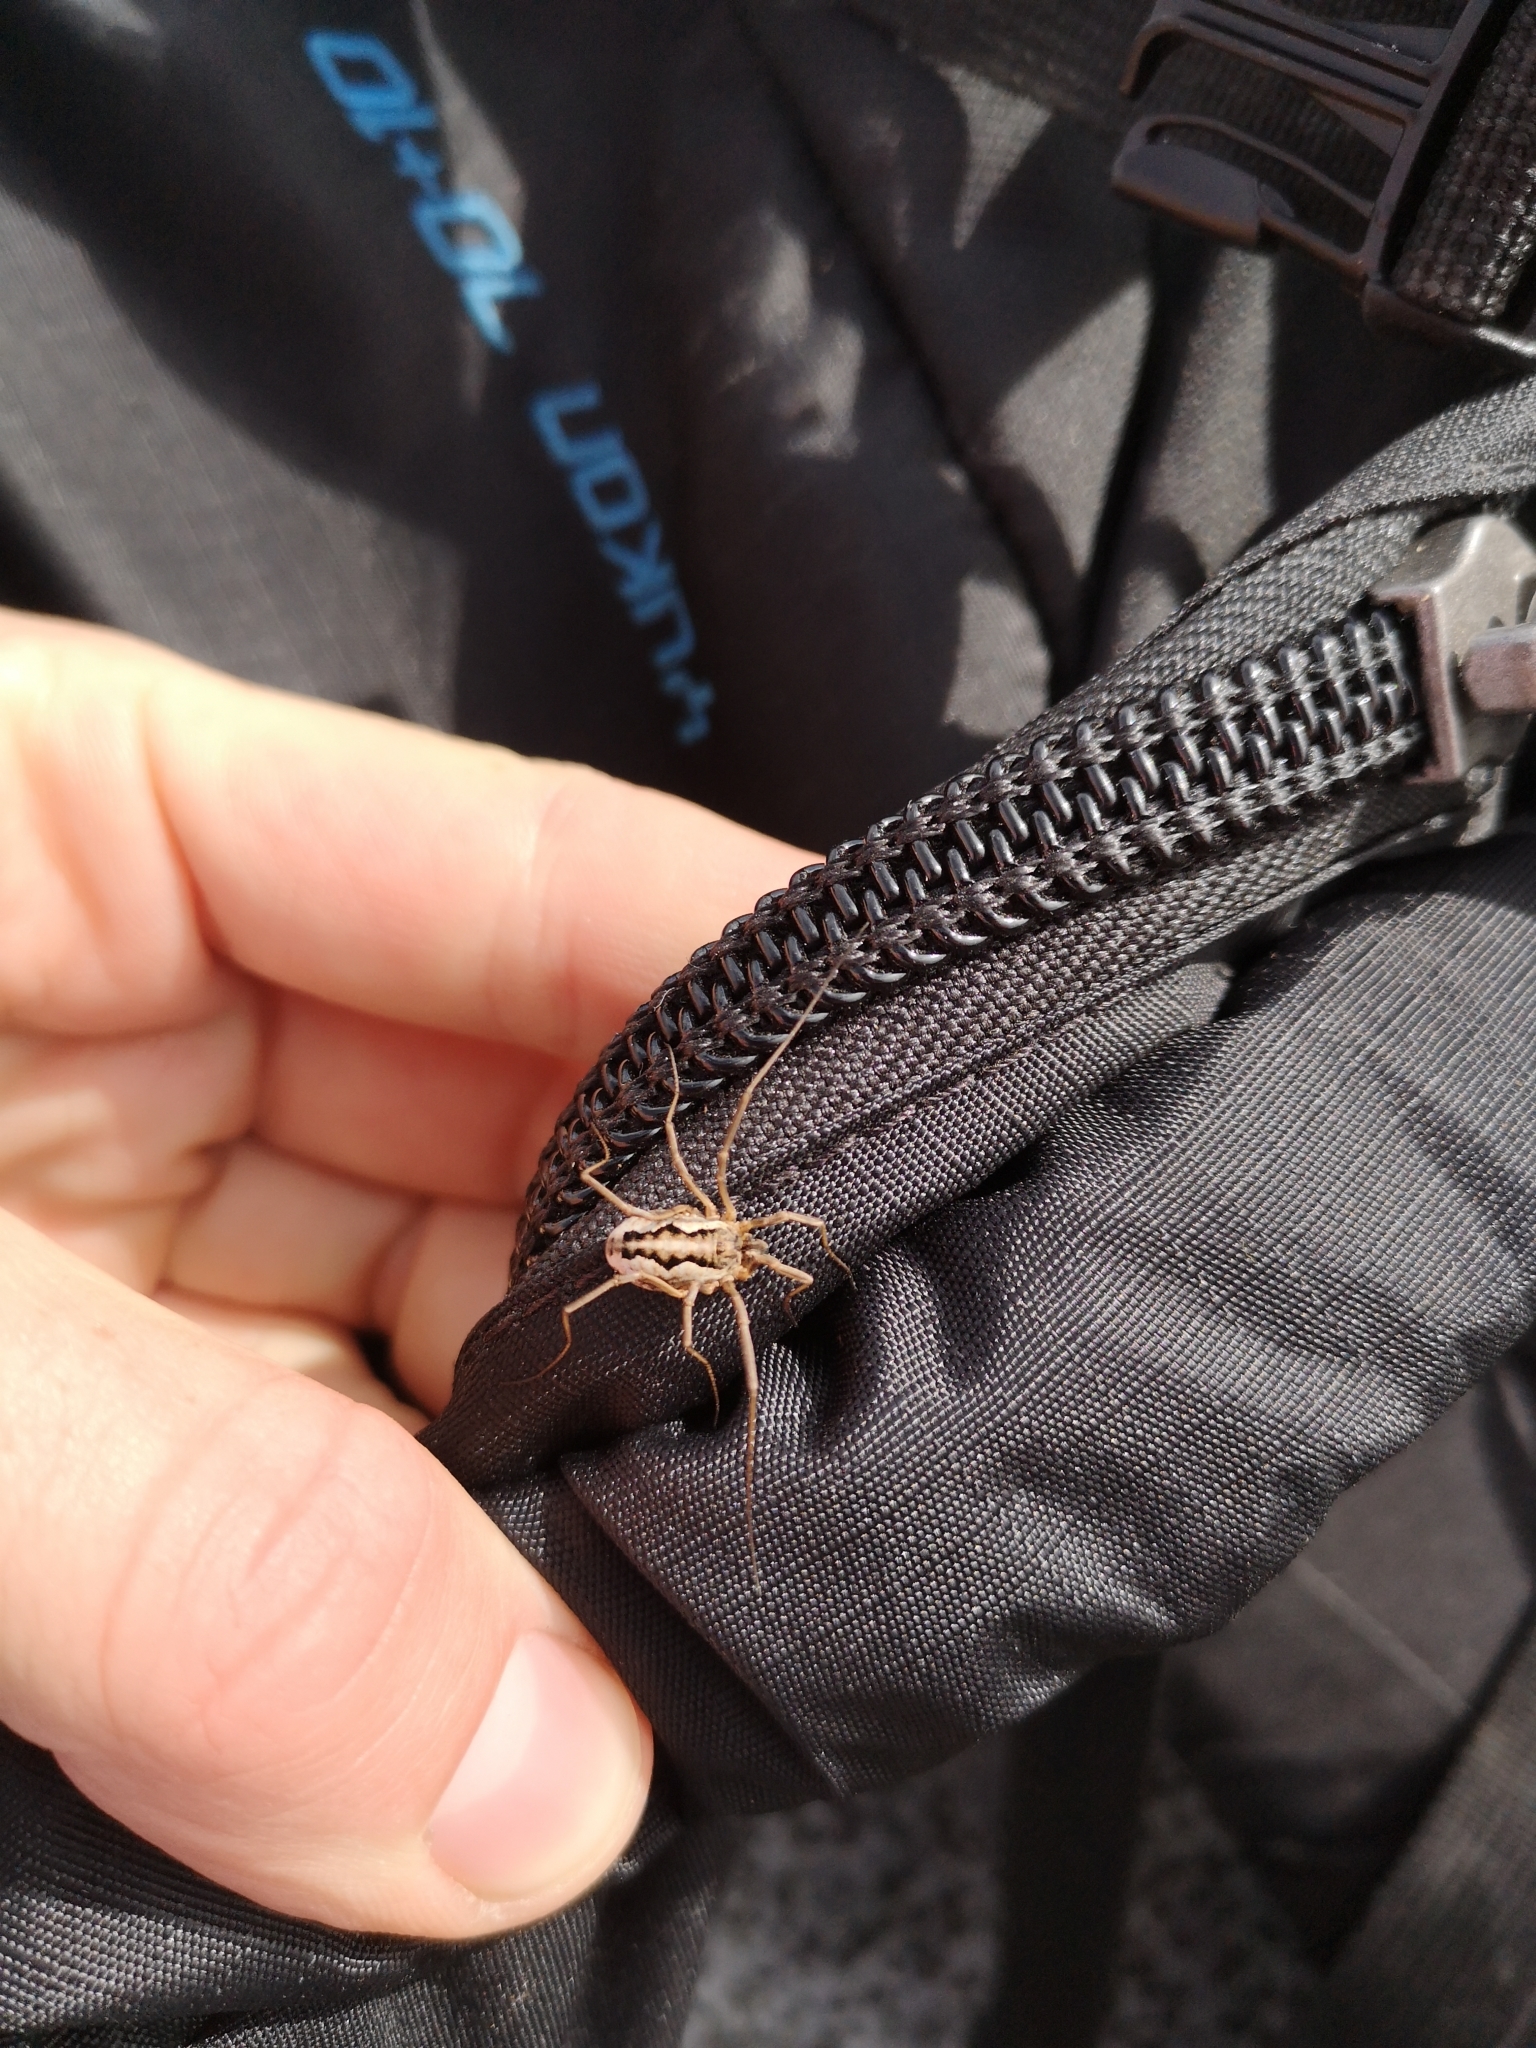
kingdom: Animalia
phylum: Arthropoda
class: Arachnida
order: Opiliones
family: Phalangiidae
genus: Mitopus
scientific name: Mitopus morio
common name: Saddleback harvestman
